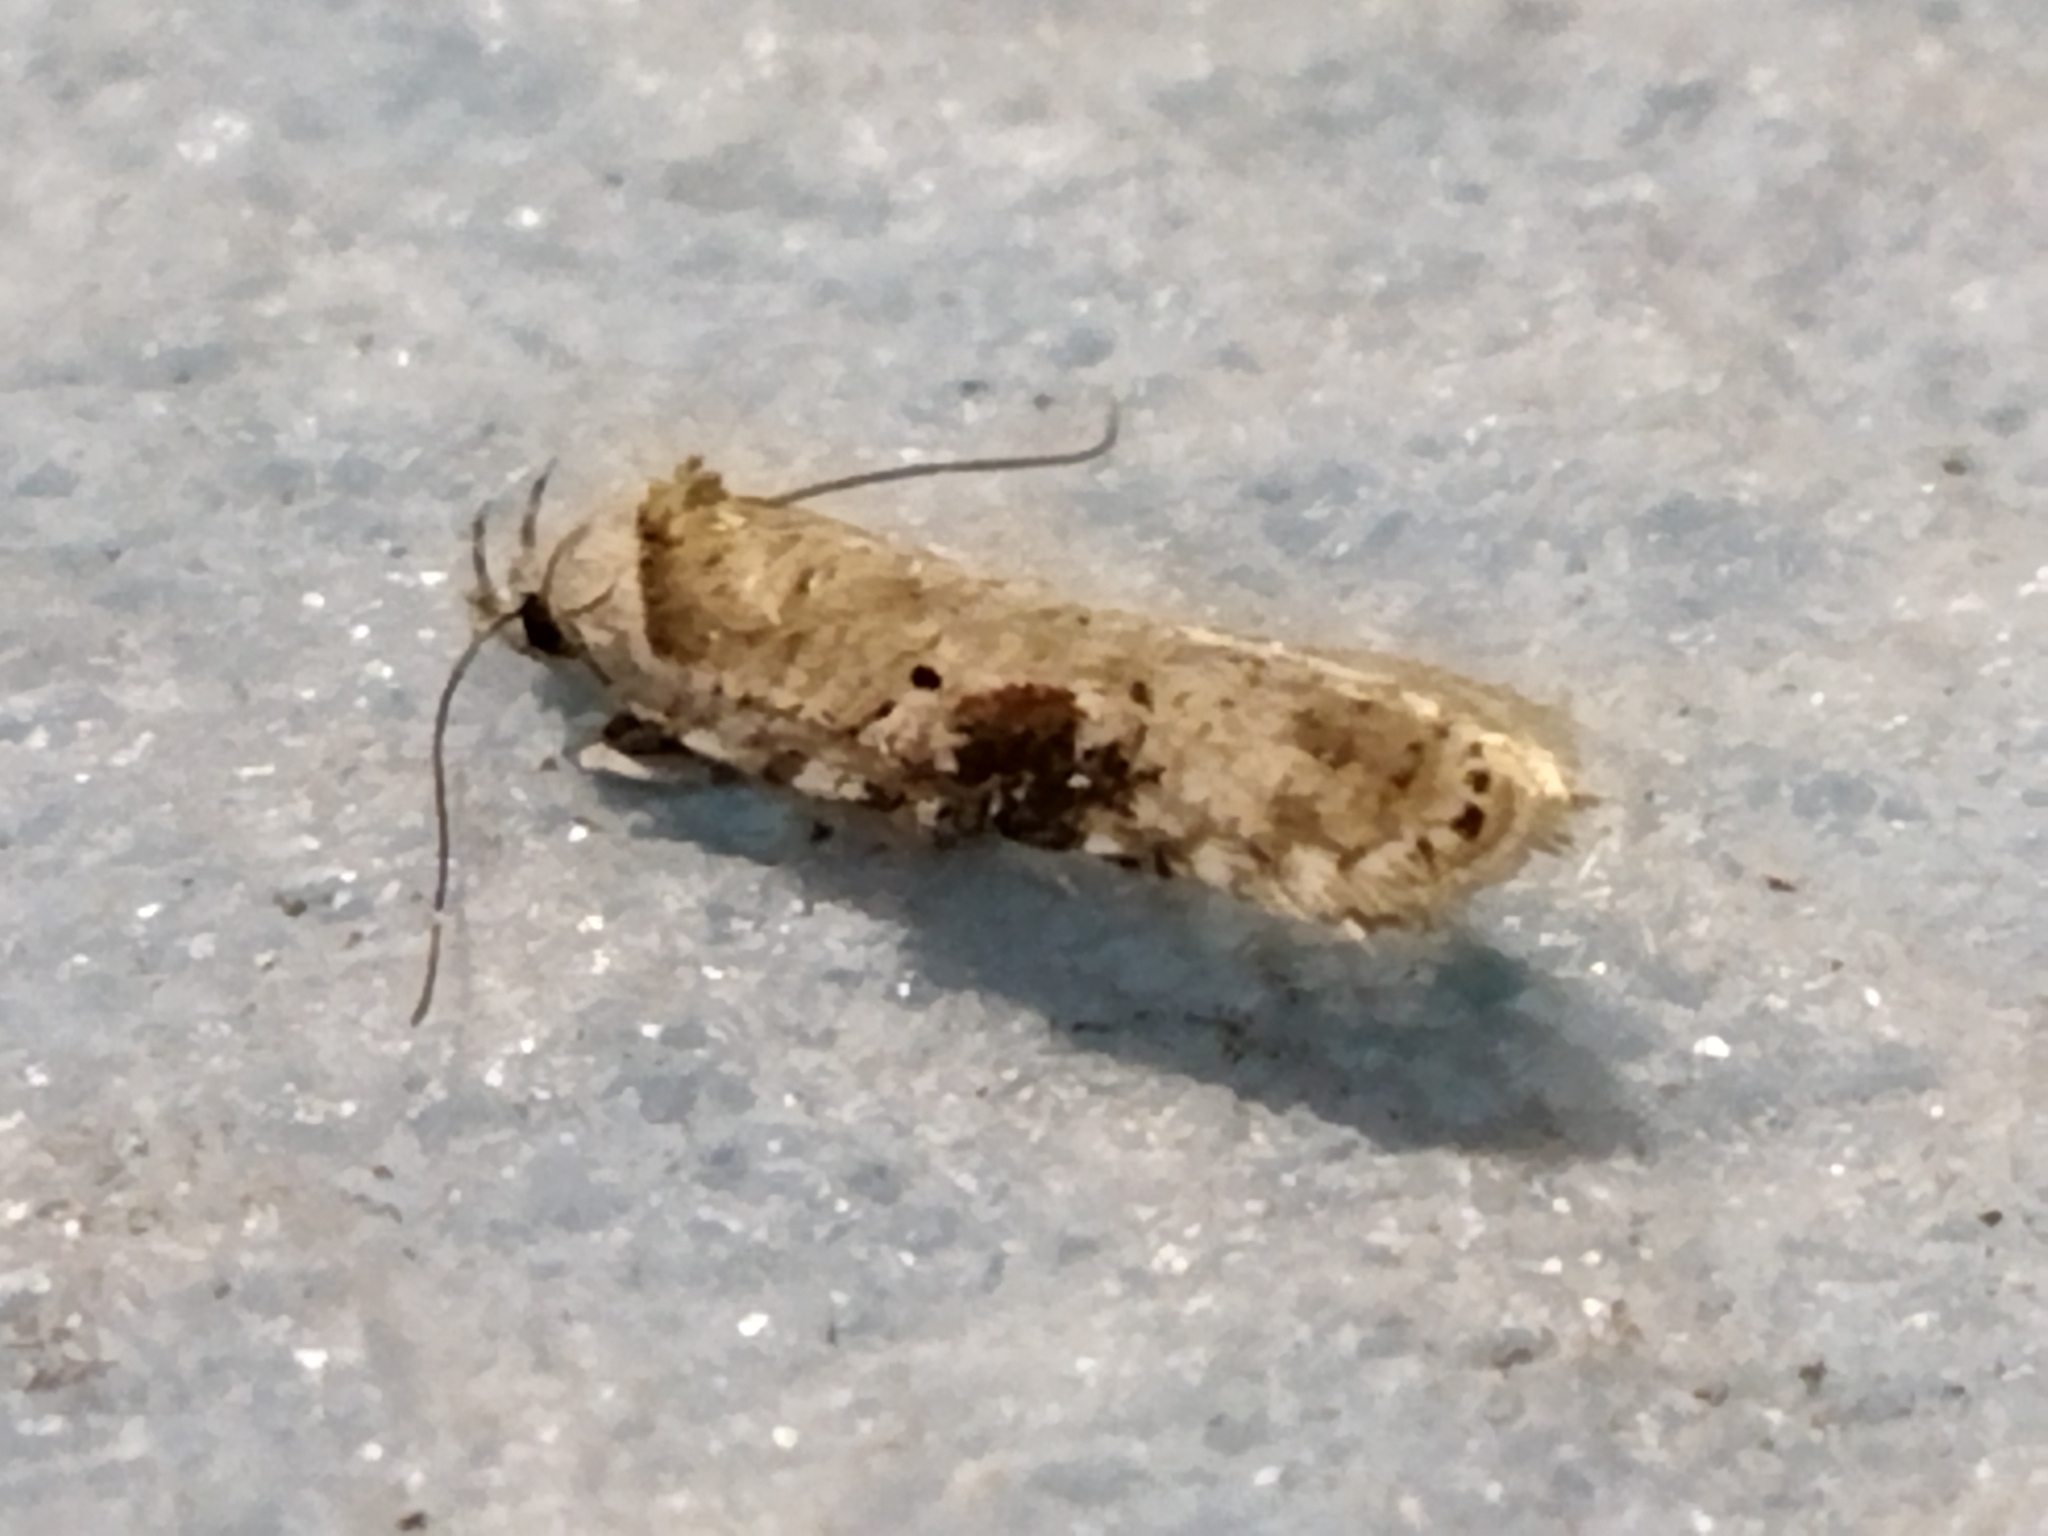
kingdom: Animalia
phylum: Arthropoda
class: Insecta
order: Lepidoptera
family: Depressariidae
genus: Agonopterix
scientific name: Agonopterix alstroemeriana
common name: Moth
